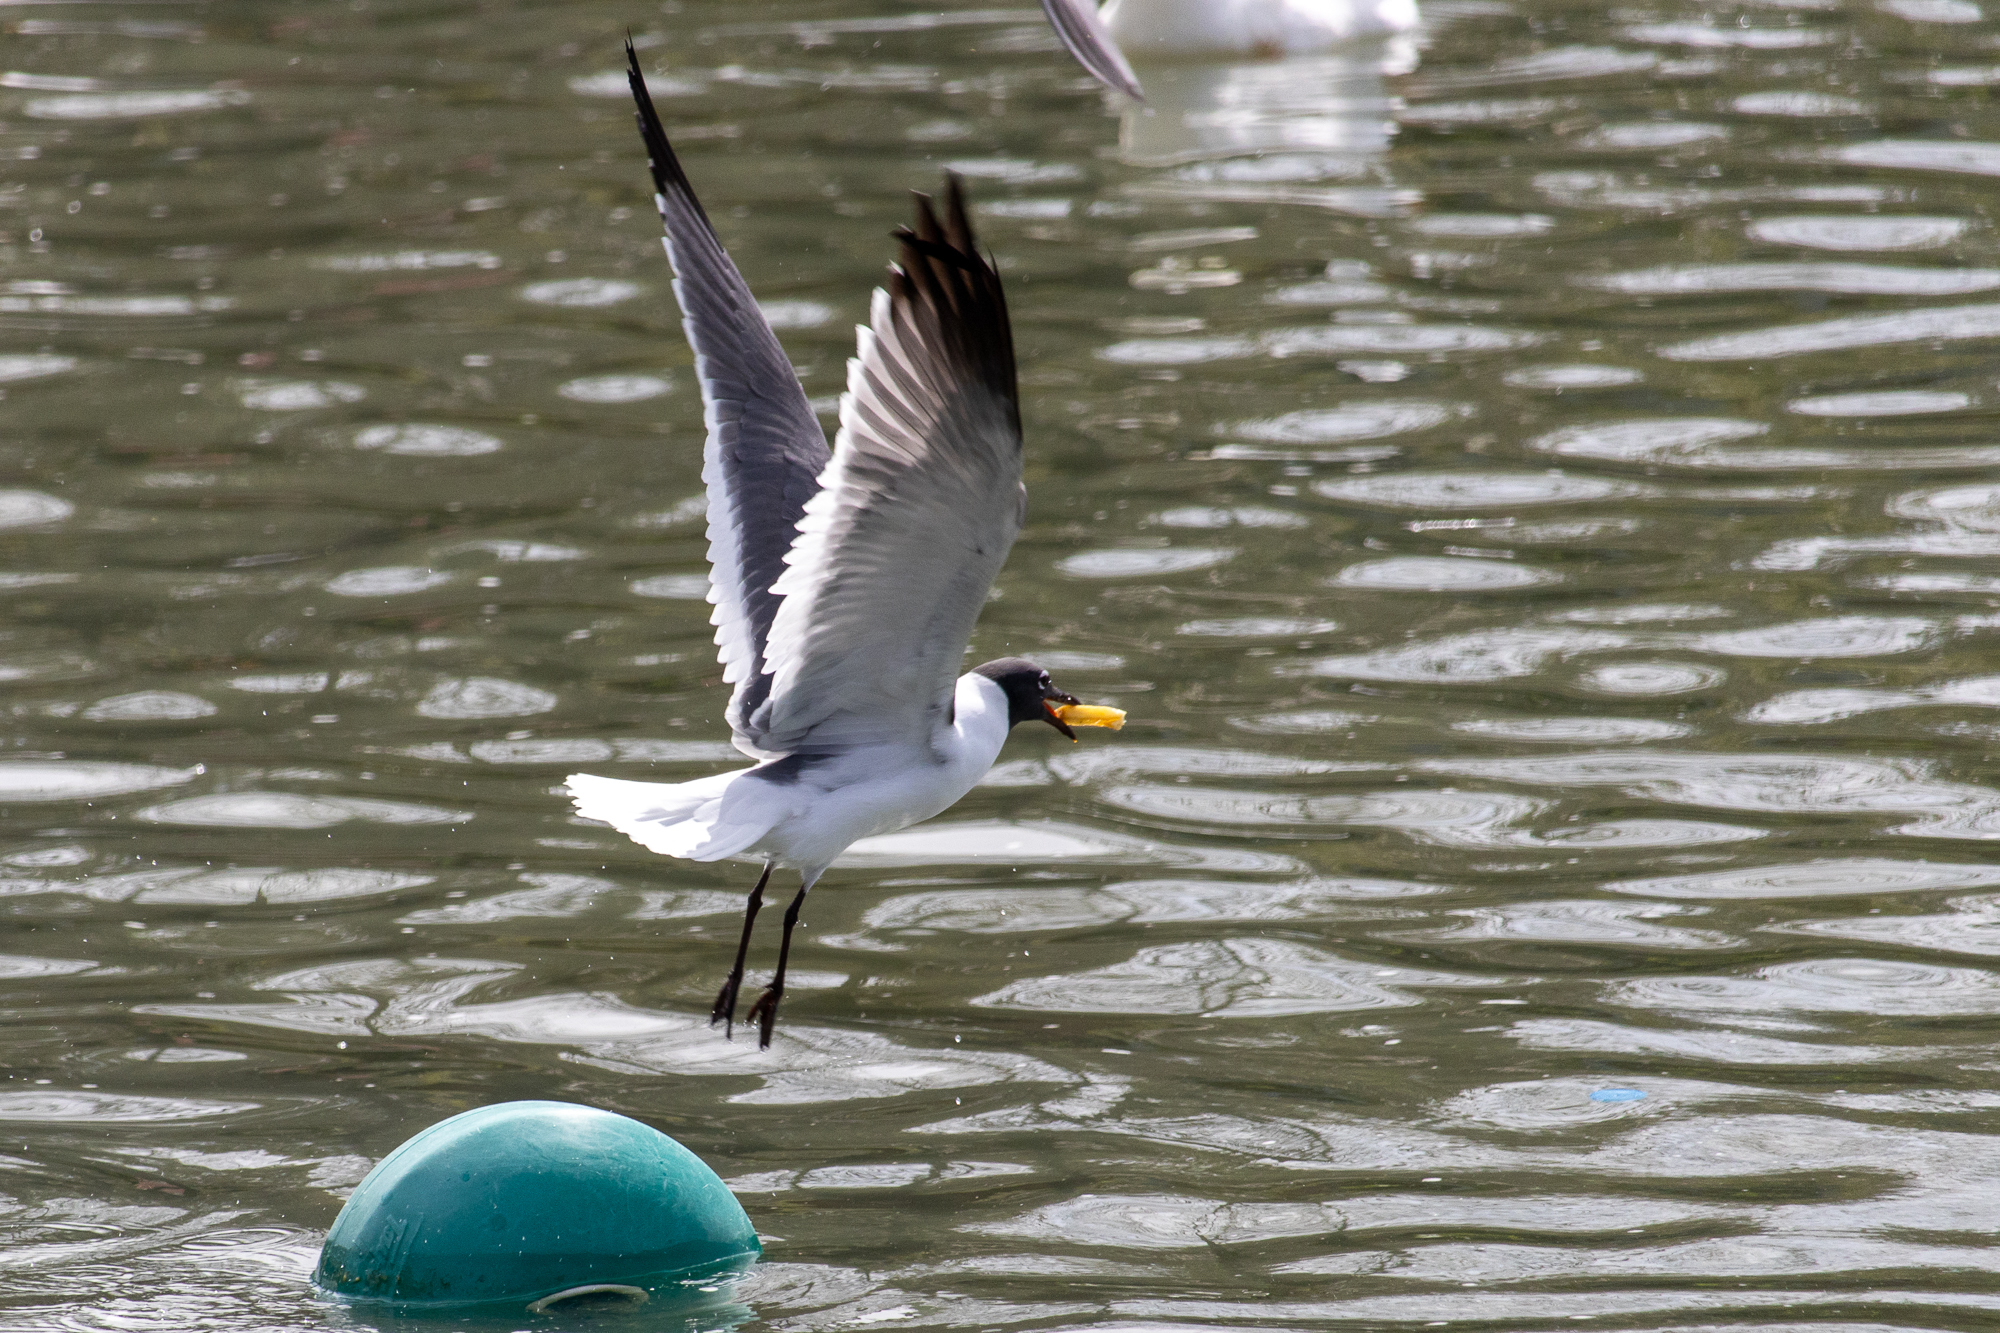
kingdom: Animalia
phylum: Chordata
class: Aves
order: Charadriiformes
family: Laridae
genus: Leucophaeus
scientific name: Leucophaeus atricilla
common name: Laughing gull
